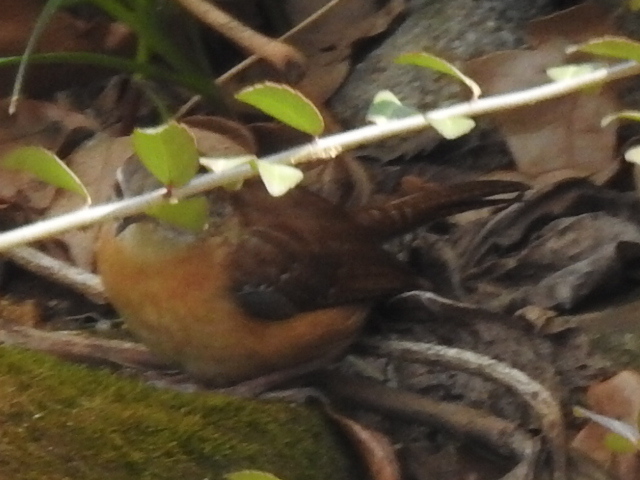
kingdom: Animalia
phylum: Chordata
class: Aves
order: Passeriformes
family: Troglodytidae
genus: Thryothorus
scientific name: Thryothorus ludovicianus
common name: Carolina wren
